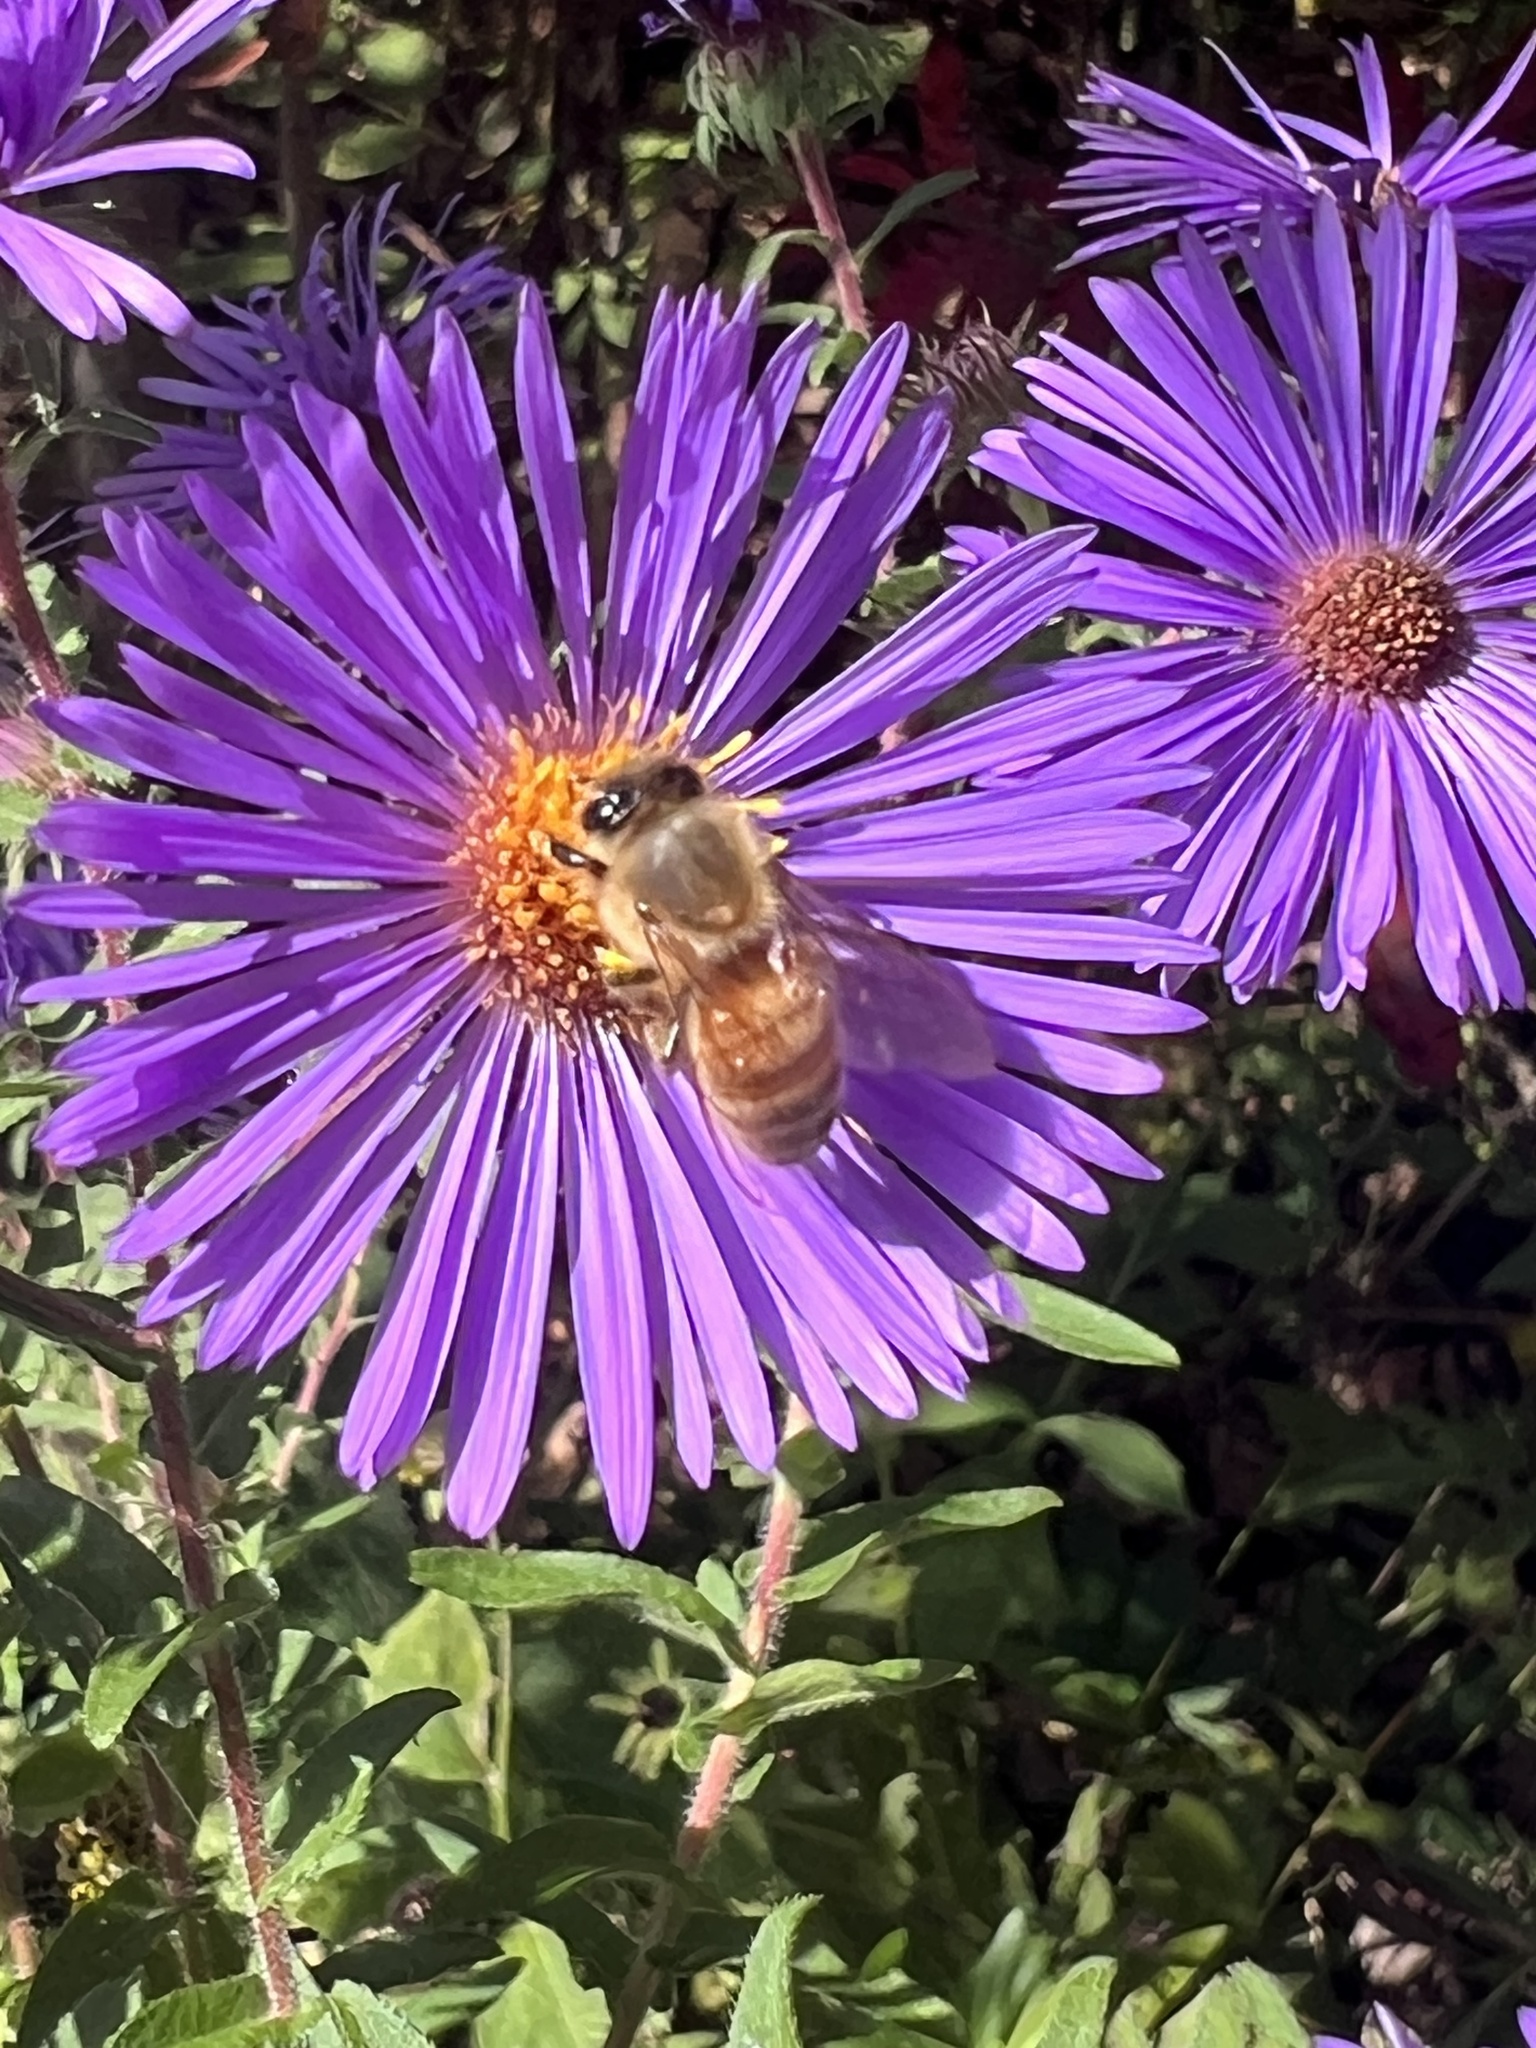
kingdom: Animalia
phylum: Arthropoda
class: Insecta
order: Hymenoptera
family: Apidae
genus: Apis
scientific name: Apis mellifera
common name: Honey bee
